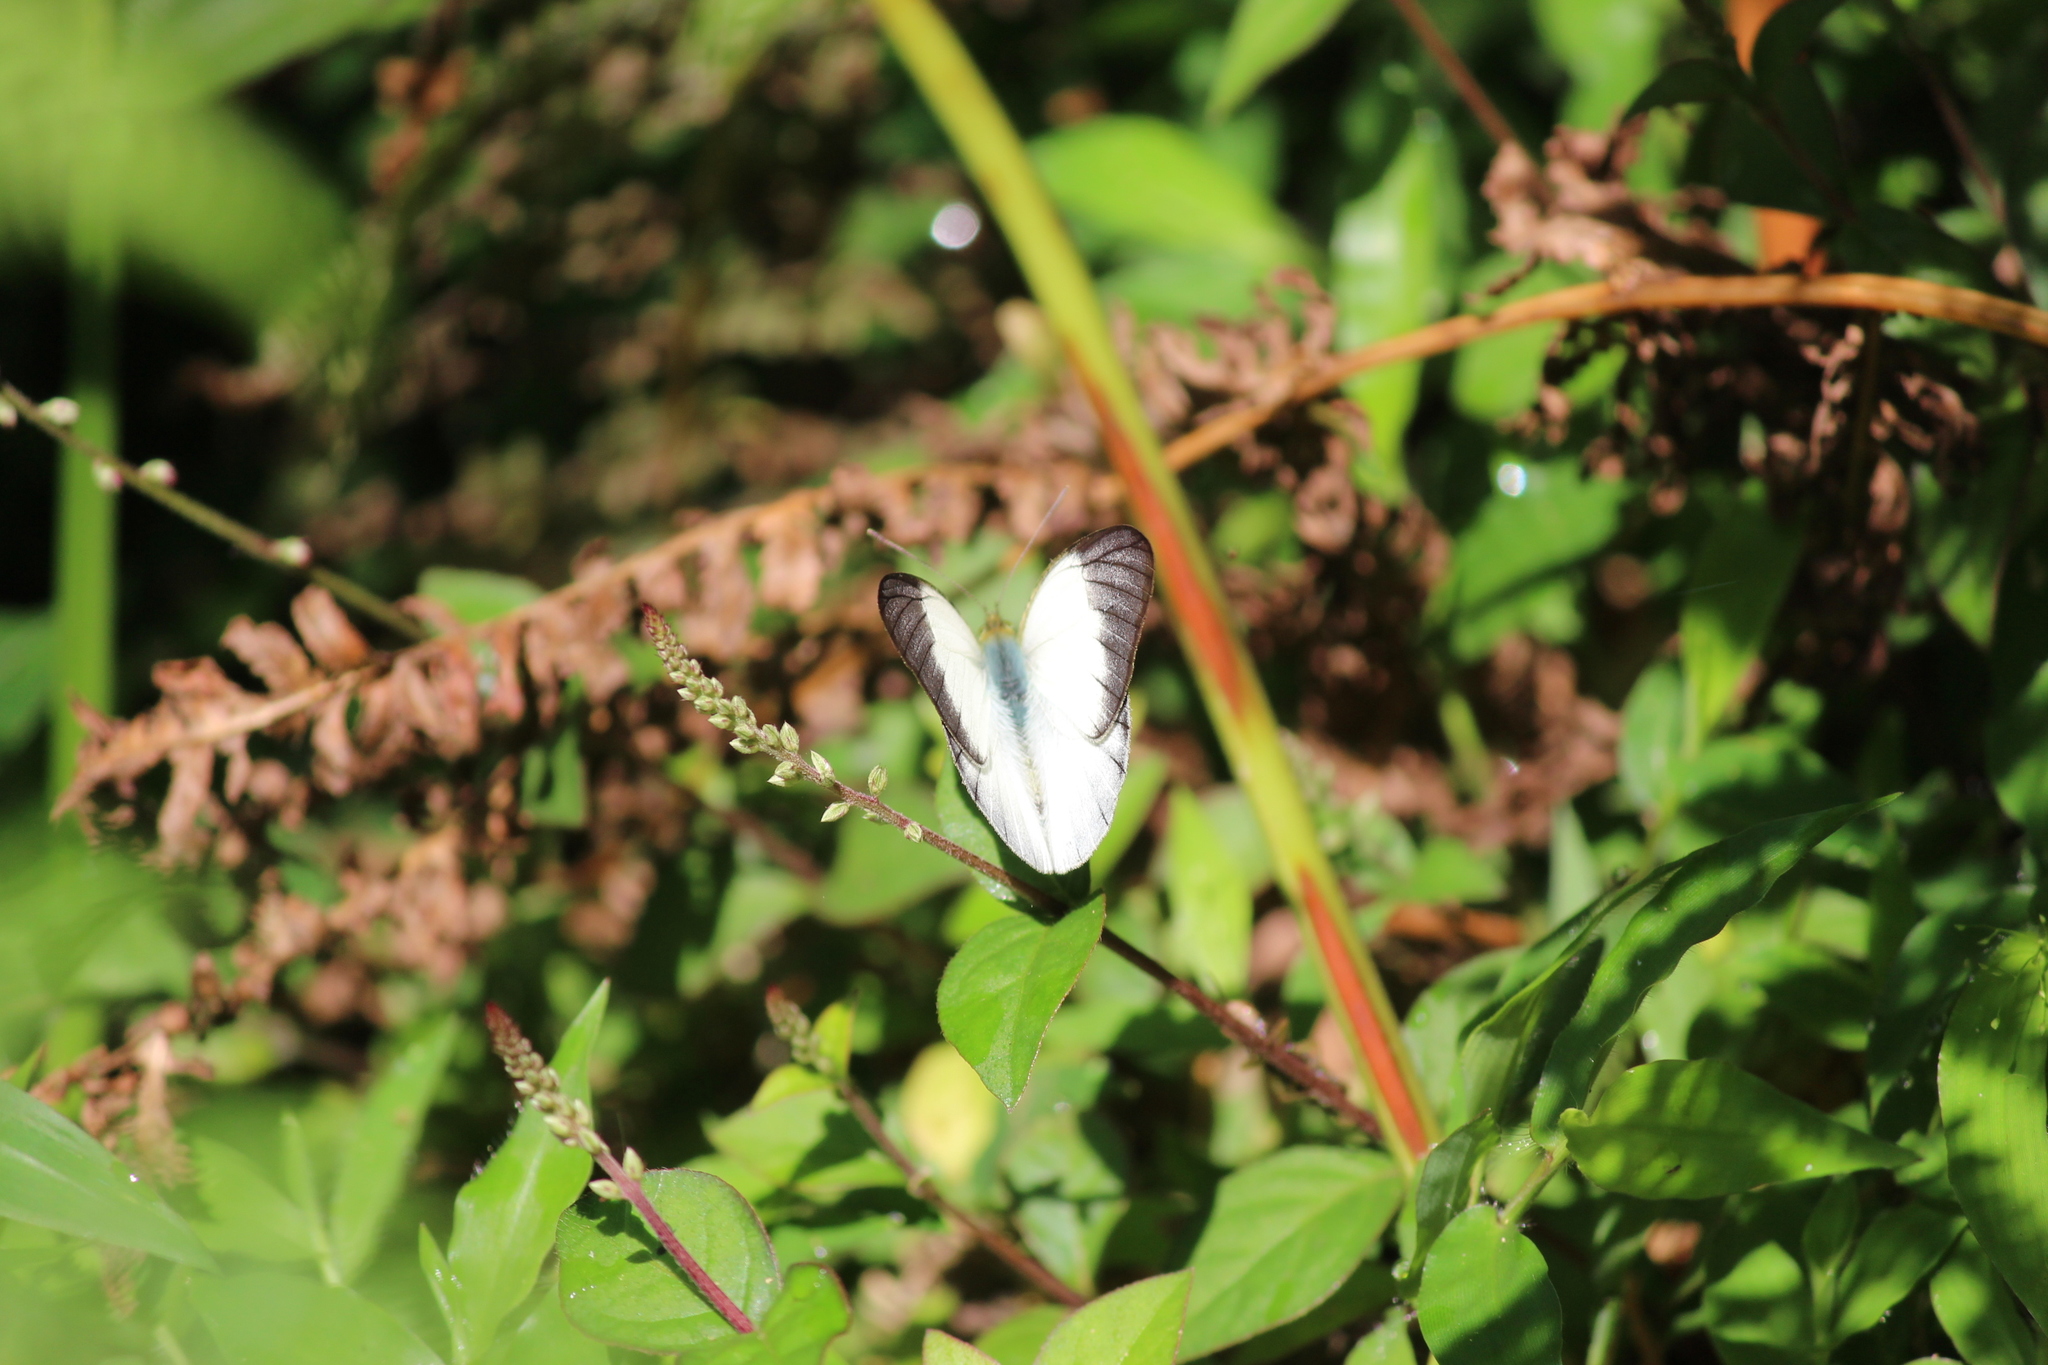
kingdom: Animalia
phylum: Arthropoda
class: Insecta
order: Lepidoptera
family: Pieridae
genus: Cepora
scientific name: Cepora nadina
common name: Lesser gull
